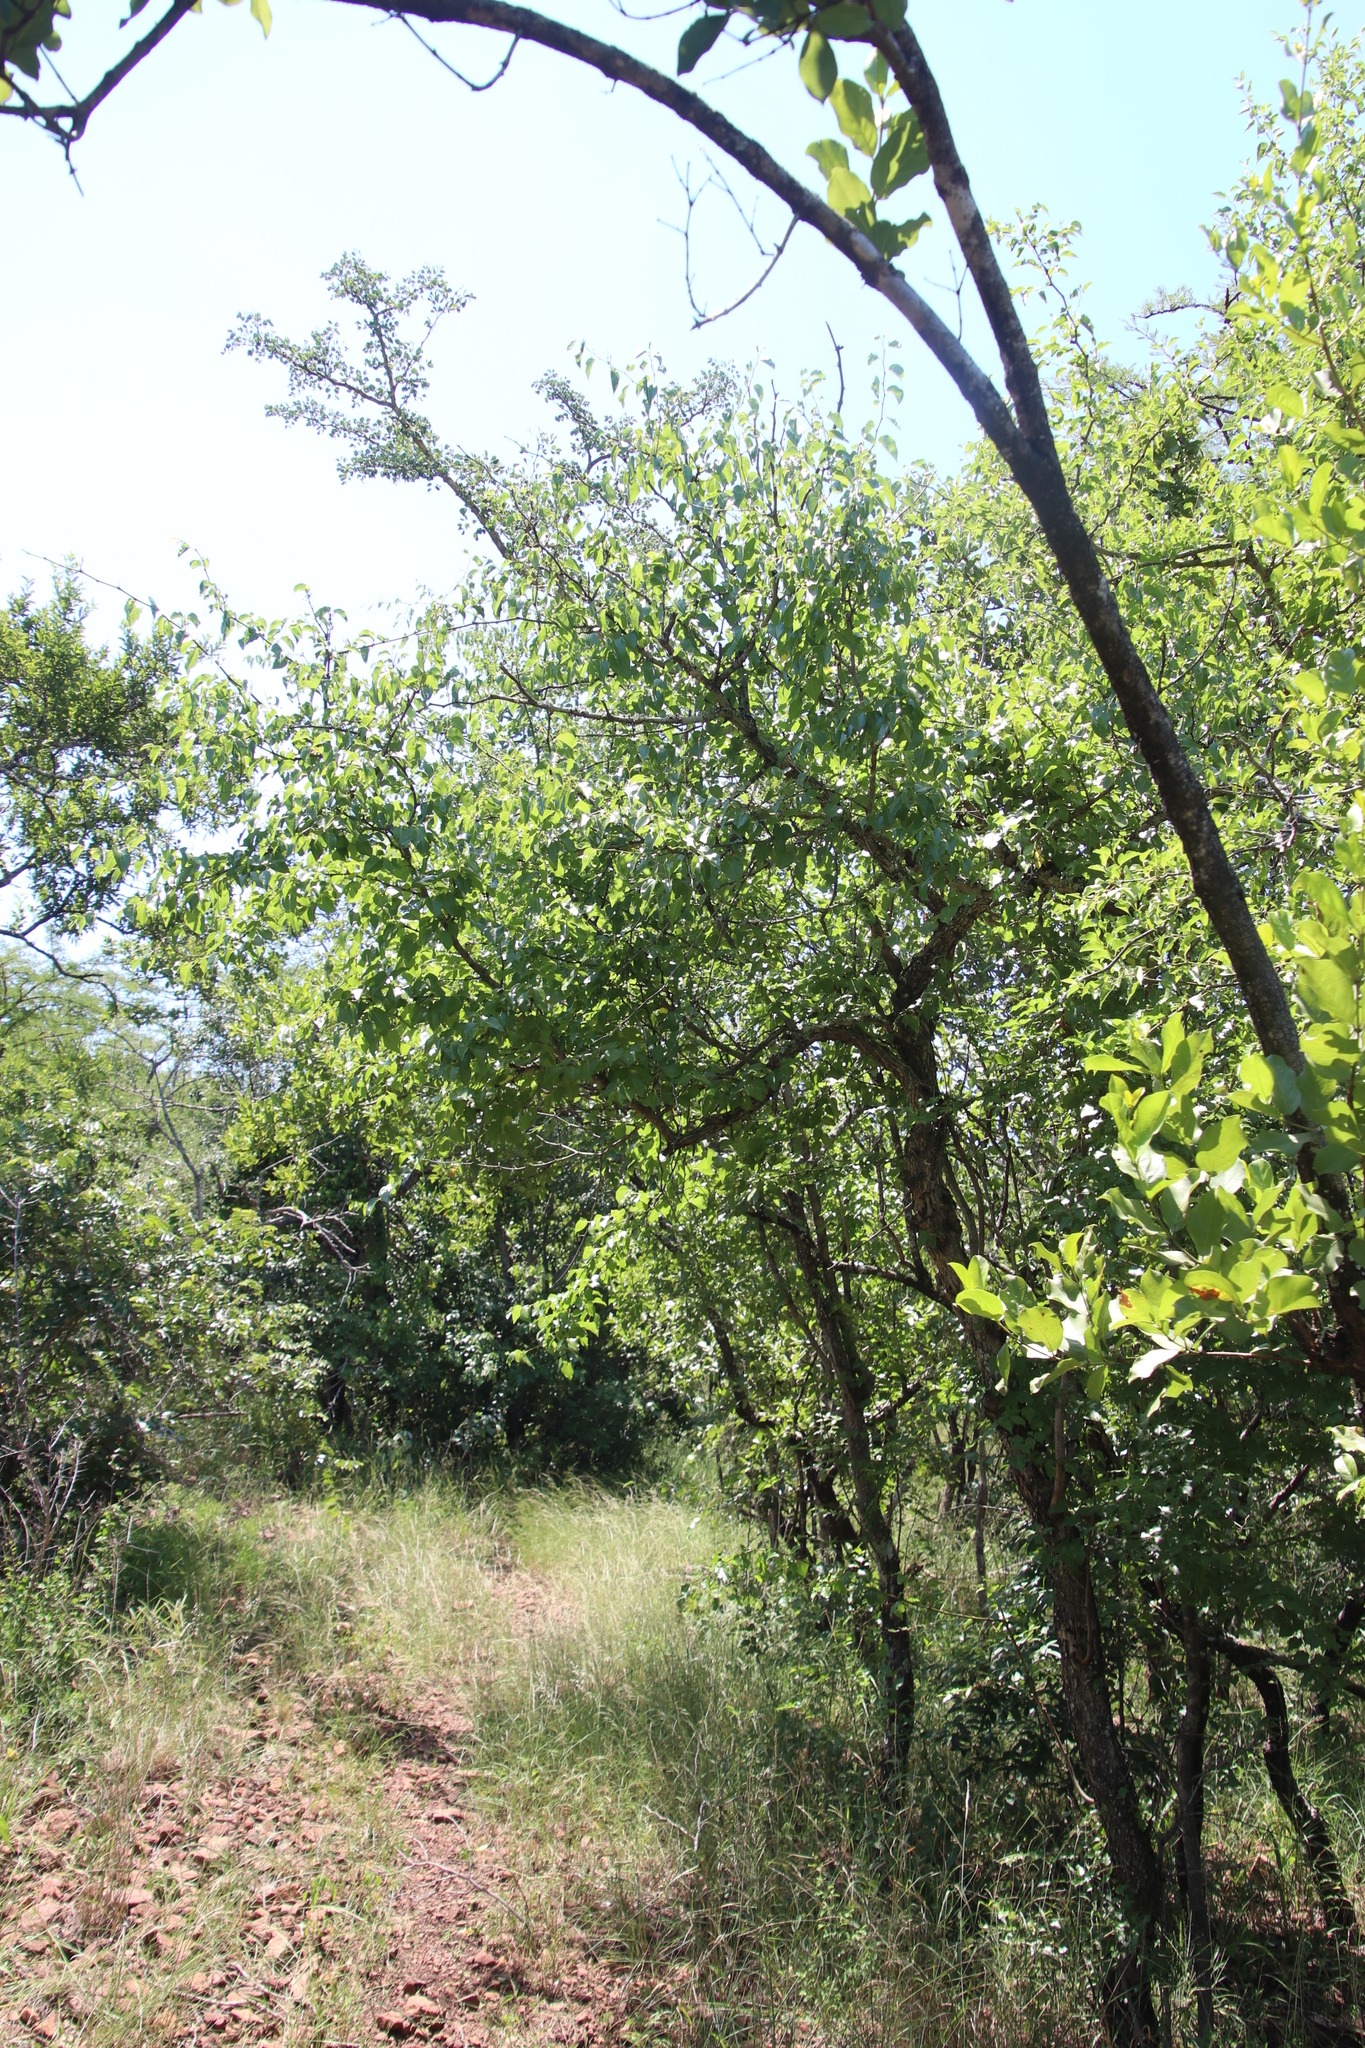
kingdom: Plantae
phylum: Tracheophyta
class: Magnoliopsida
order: Rosales
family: Rhamnaceae
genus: Ziziphus
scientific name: Ziziphus mucronata
